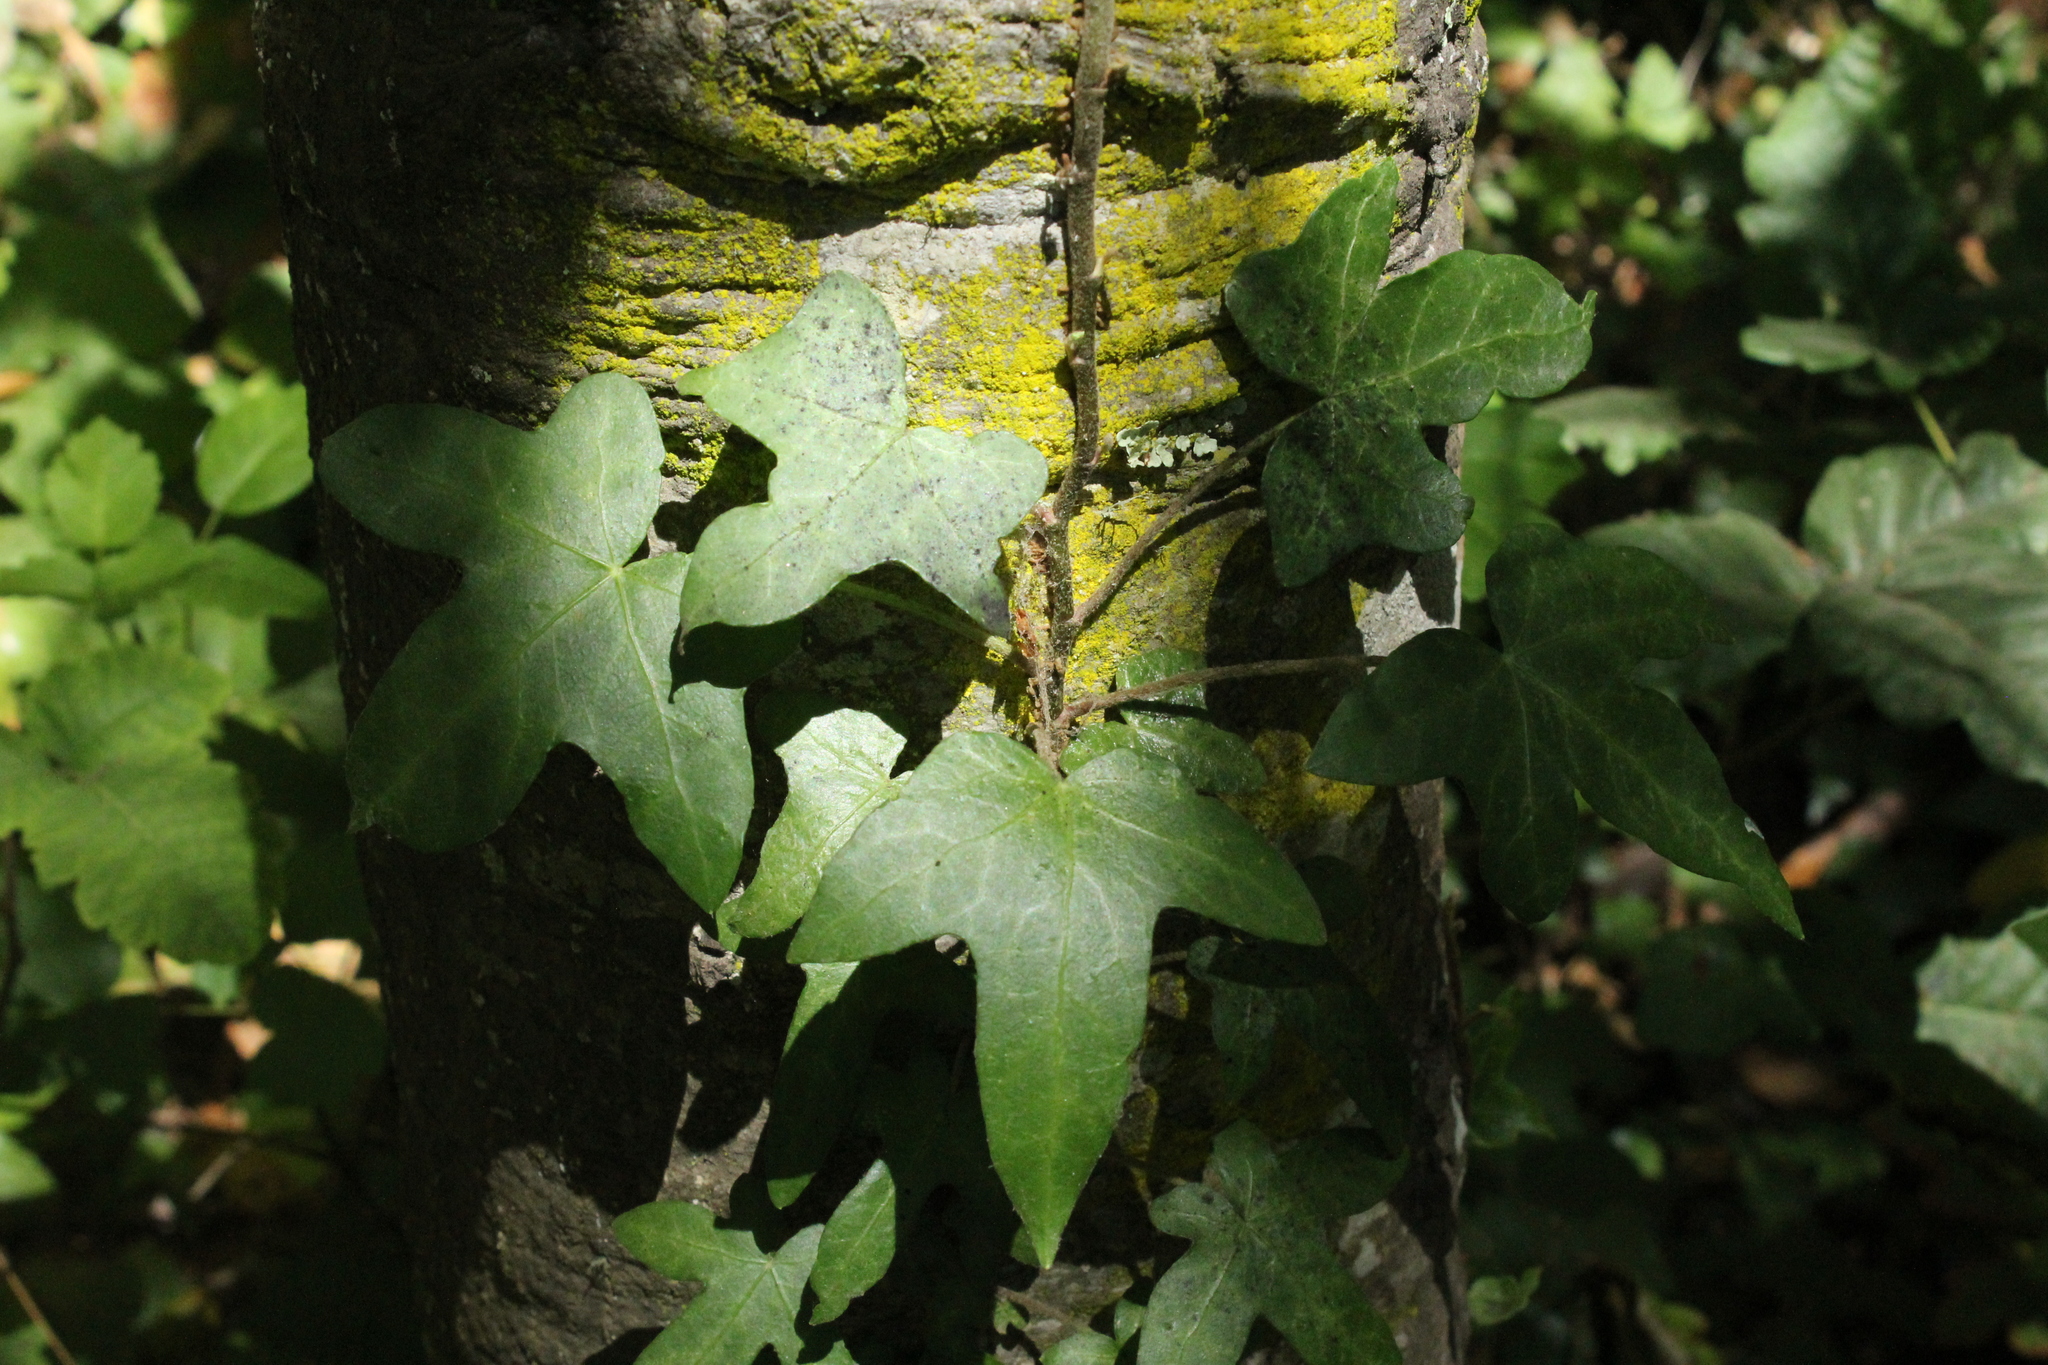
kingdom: Plantae
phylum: Tracheophyta
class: Magnoliopsida
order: Apiales
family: Araliaceae
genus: Hedera
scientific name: Hedera helix
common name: Ivy
